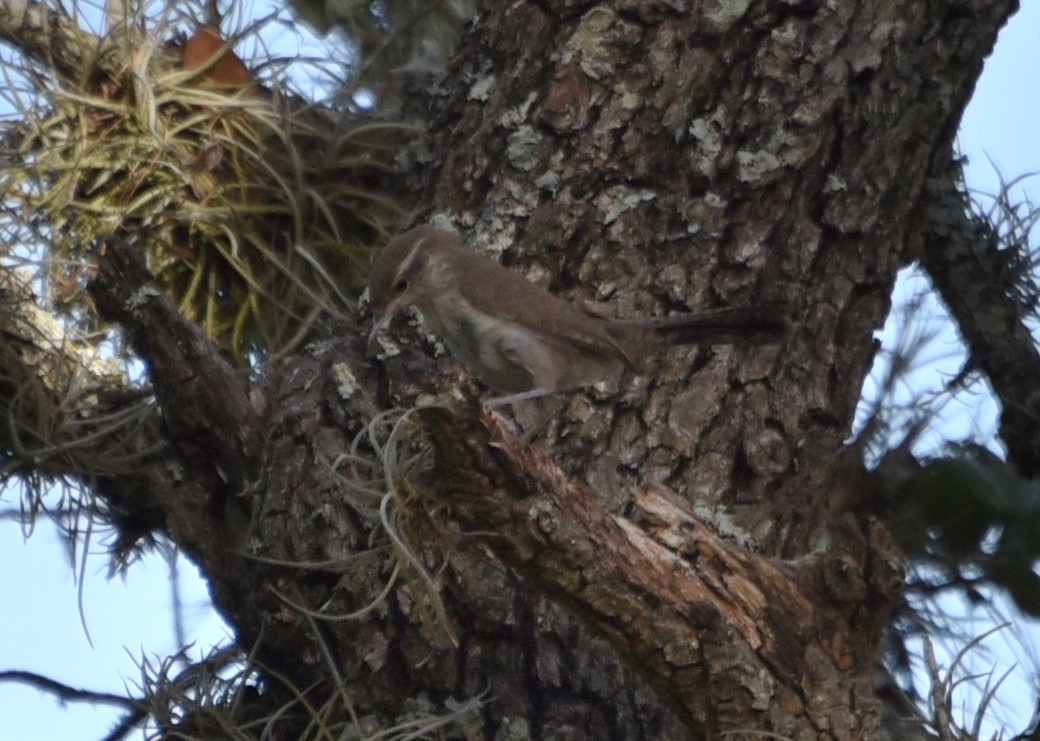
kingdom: Animalia
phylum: Chordata
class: Aves
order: Passeriformes
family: Troglodytidae
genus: Thryomanes
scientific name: Thryomanes bewickii
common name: Bewick's wren
